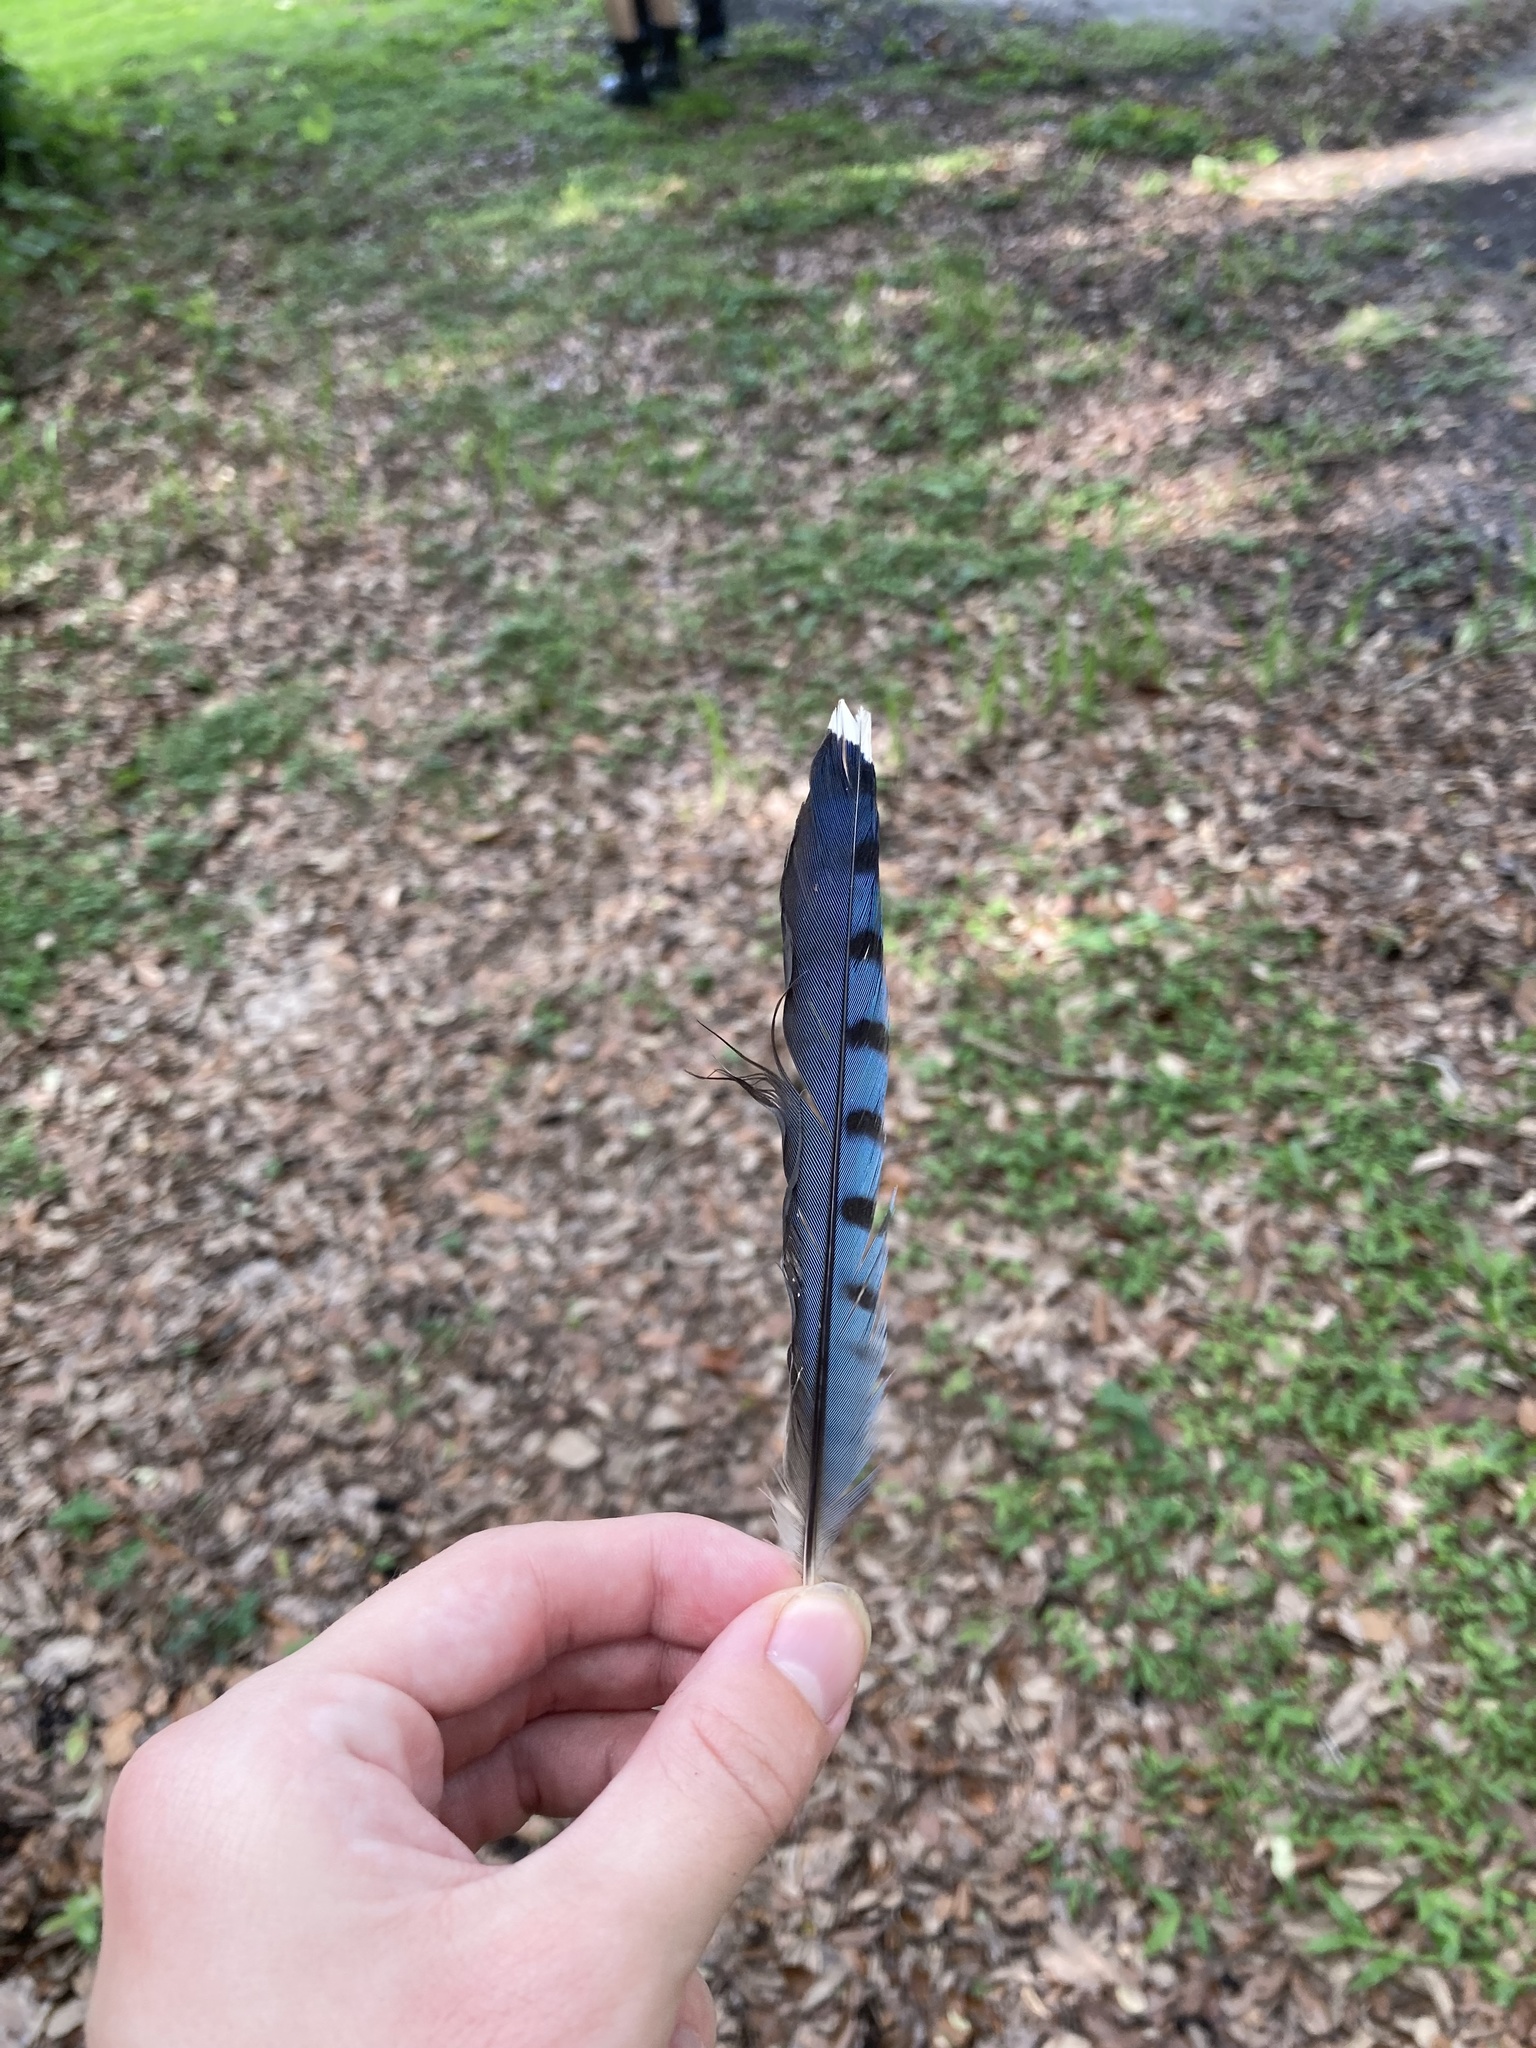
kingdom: Animalia
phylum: Chordata
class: Aves
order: Passeriformes
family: Corvidae
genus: Cyanocitta
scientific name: Cyanocitta cristata
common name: Blue jay
